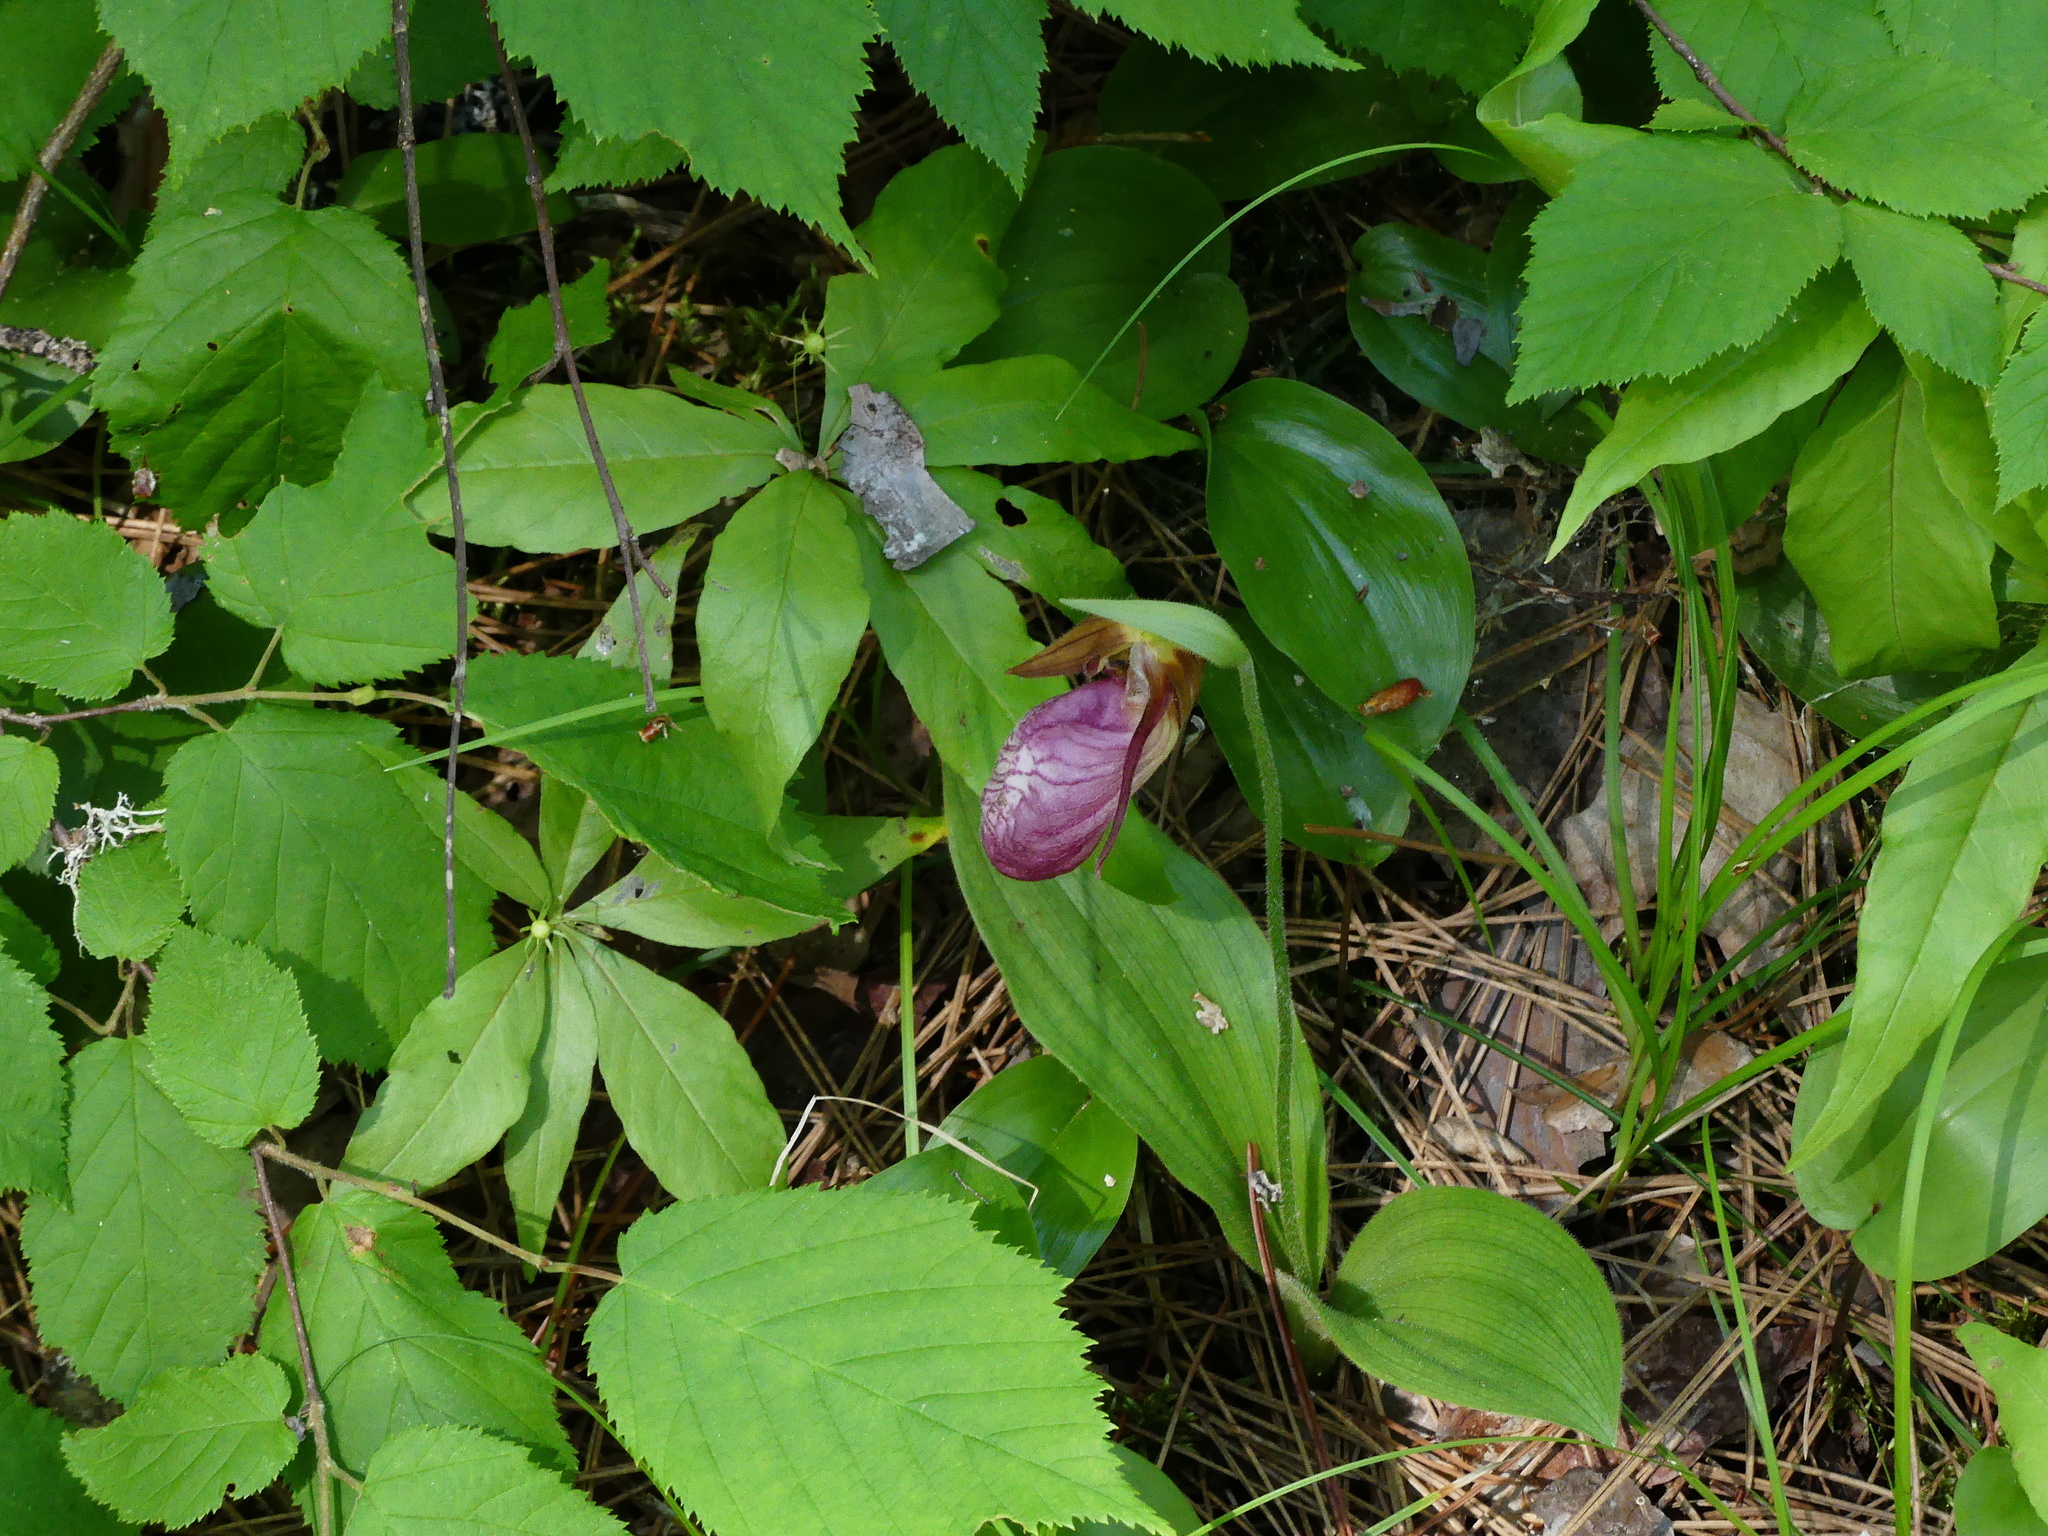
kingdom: Plantae
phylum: Tracheophyta
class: Liliopsida
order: Asparagales
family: Orchidaceae
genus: Cypripedium
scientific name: Cypripedium acaule
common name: Pink lady's-slipper
